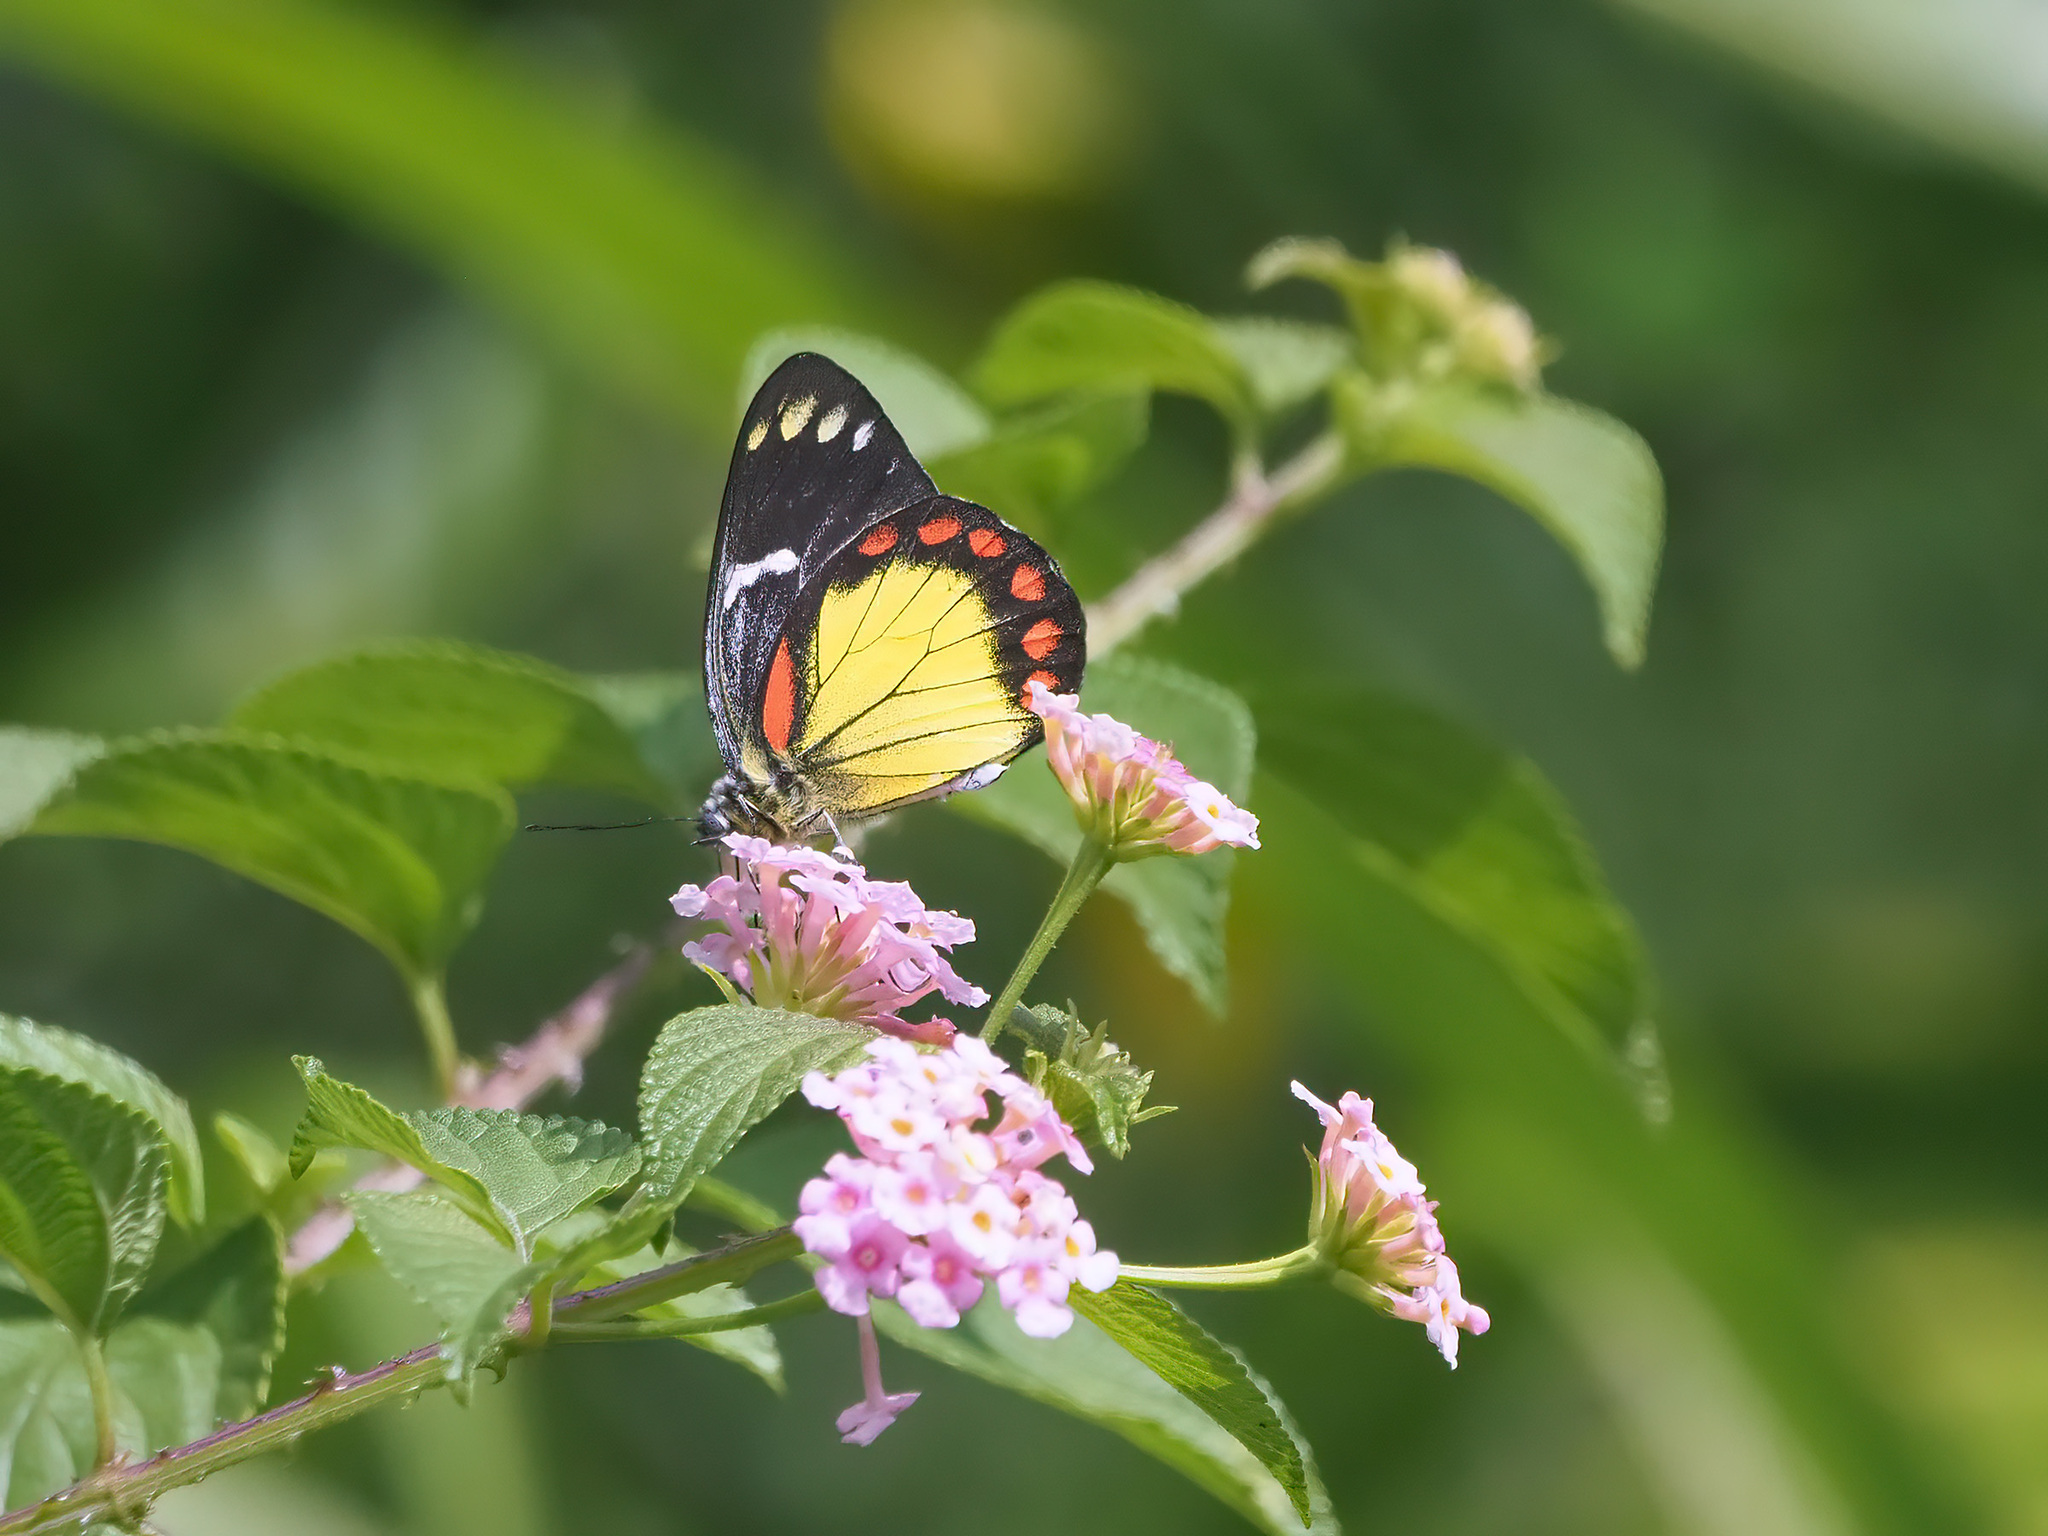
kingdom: Animalia
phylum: Arthropoda
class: Insecta
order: Lepidoptera
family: Pieridae
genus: Delias
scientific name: Delias eumolpe
